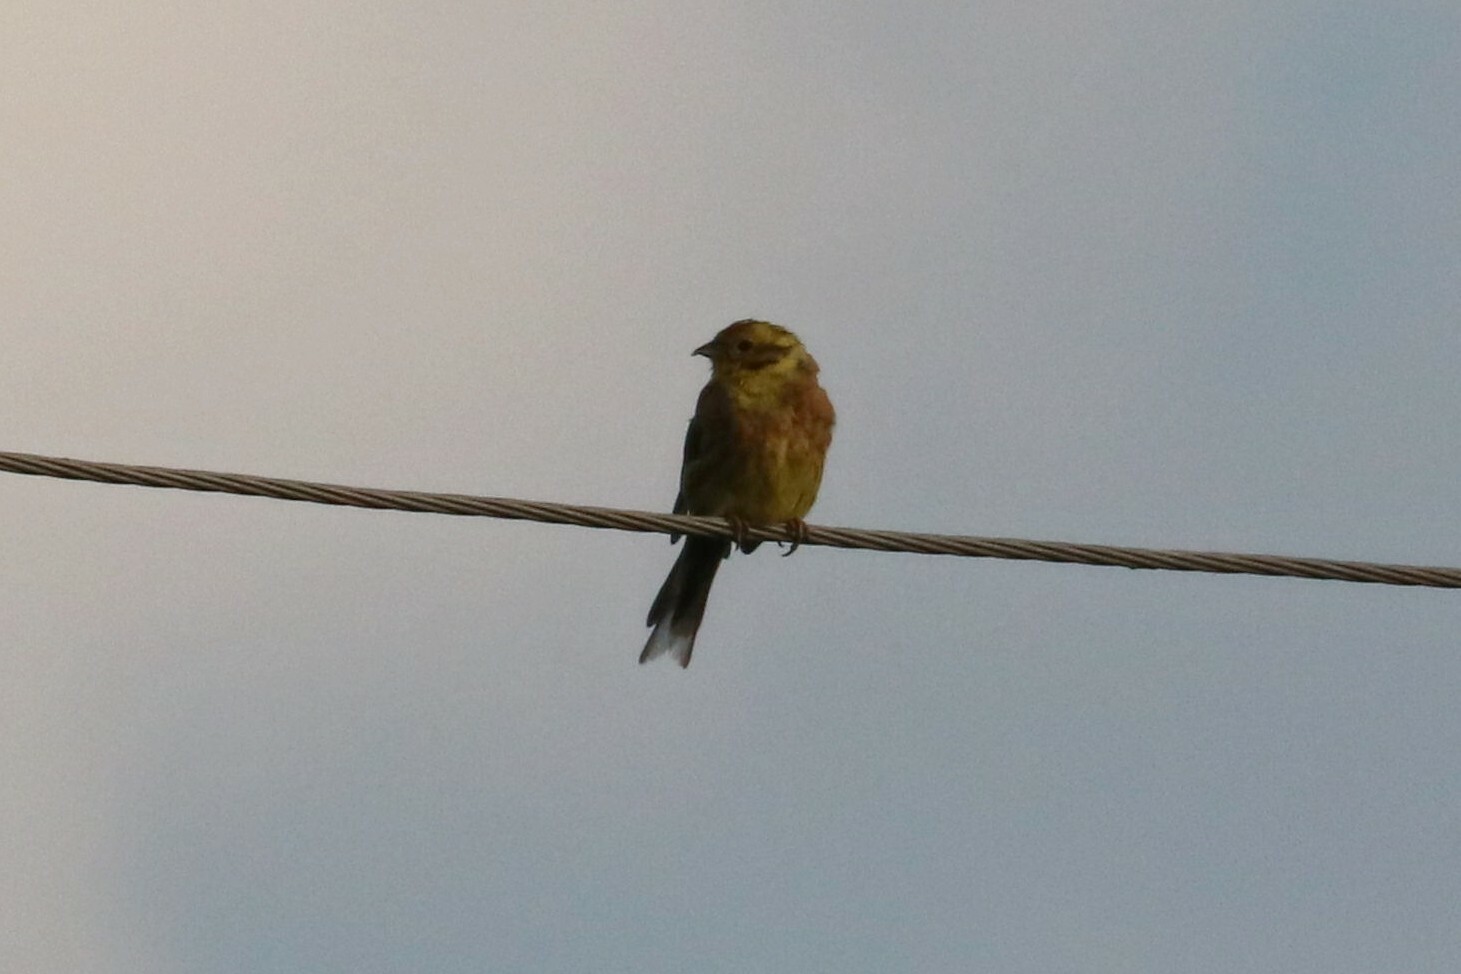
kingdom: Animalia
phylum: Chordata
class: Aves
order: Passeriformes
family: Emberizidae
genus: Emberiza
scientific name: Emberiza citrinella
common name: Yellowhammer
